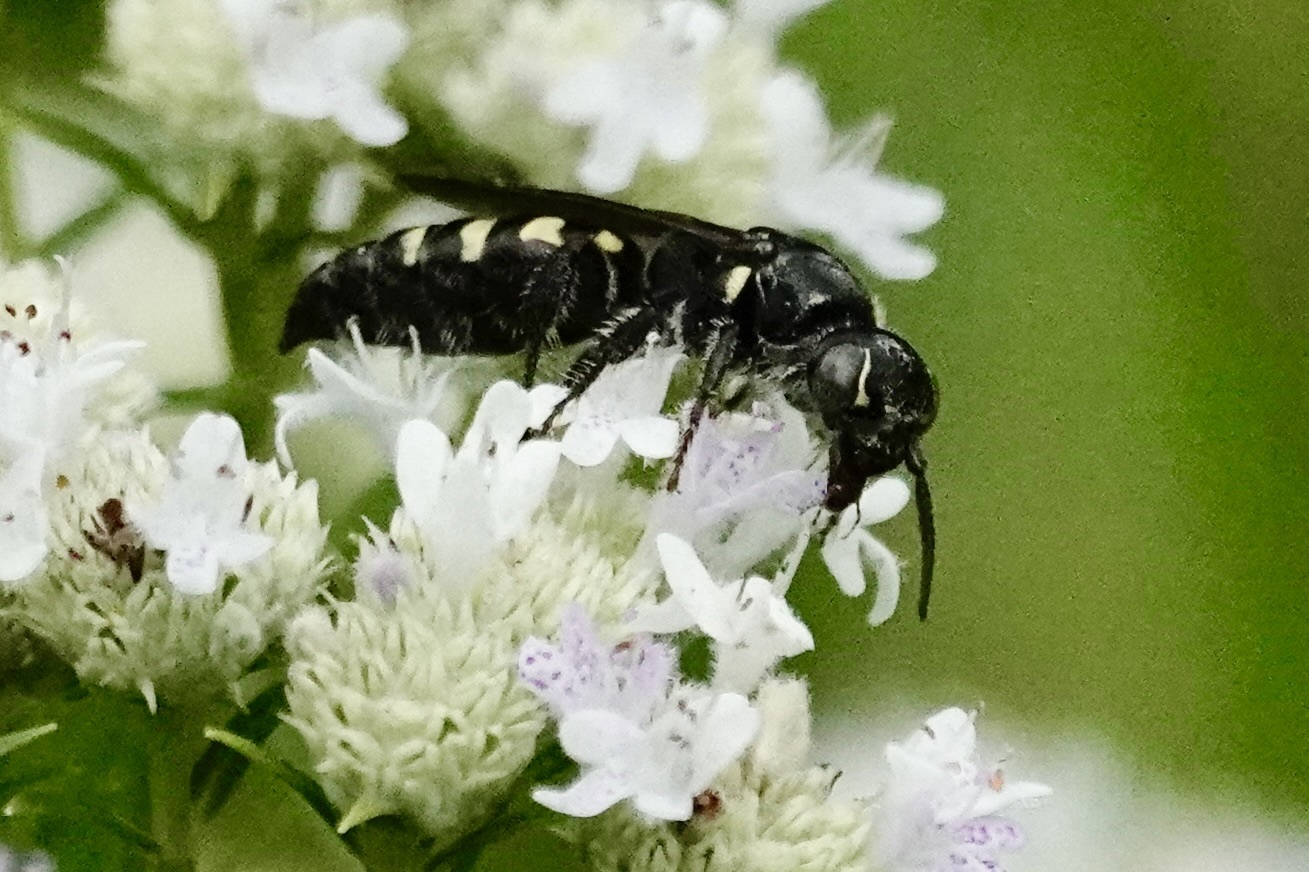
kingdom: Animalia
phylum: Arthropoda
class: Insecta
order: Hymenoptera
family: Tiphiidae
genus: Myzinum
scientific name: Myzinum obscurum
